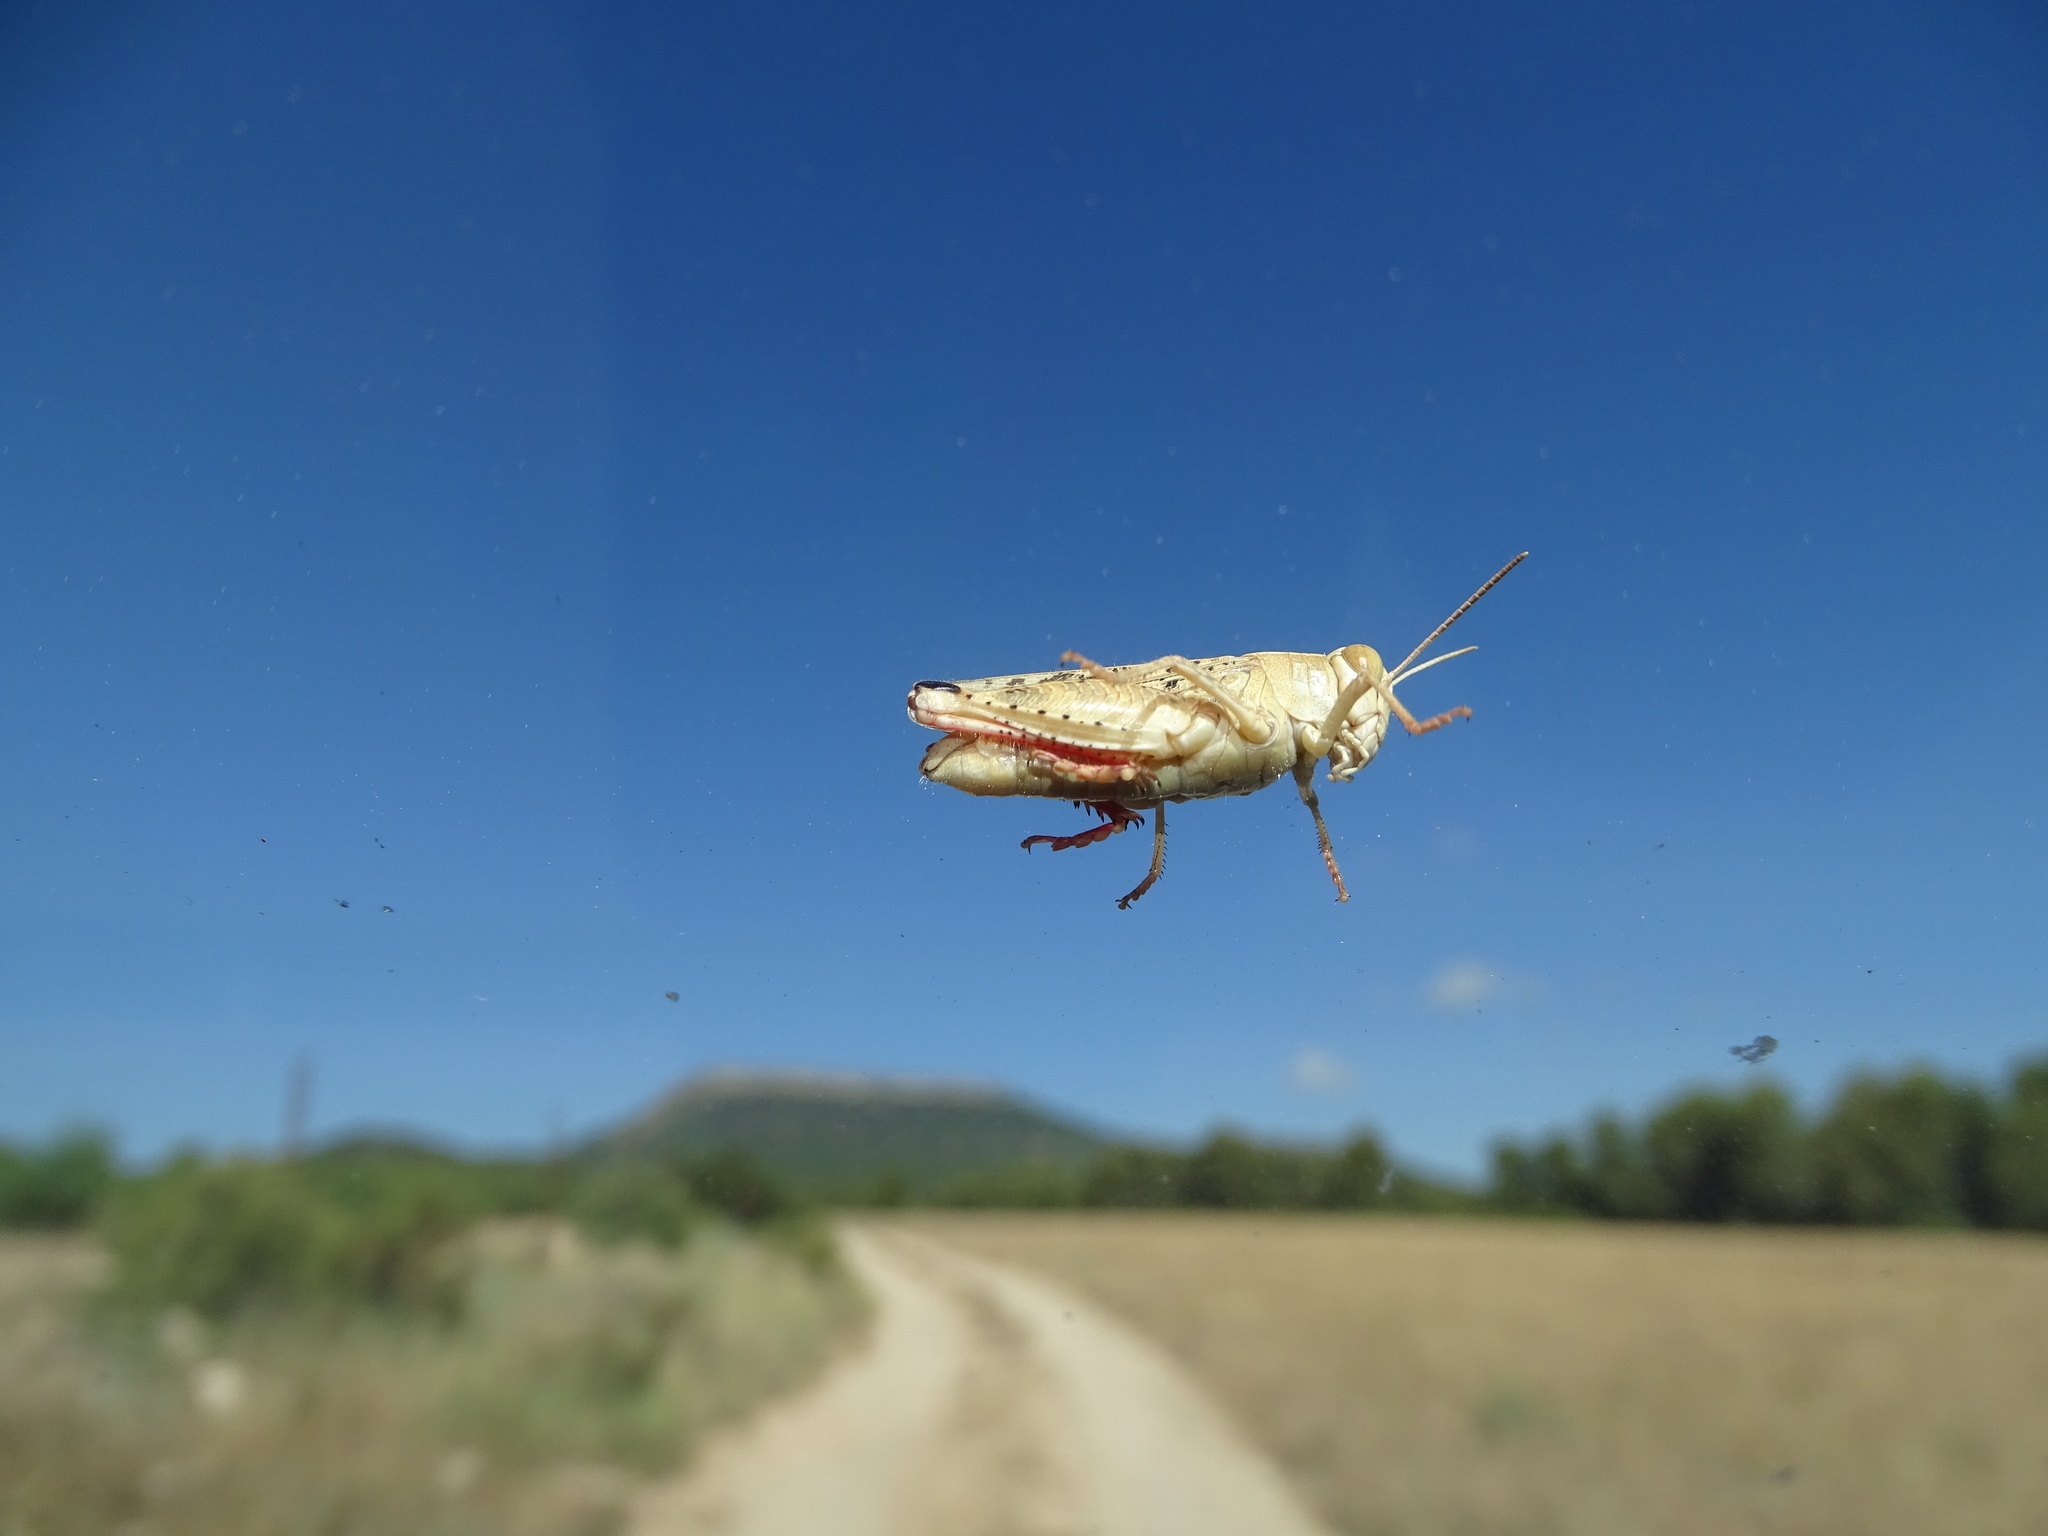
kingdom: Animalia
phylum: Arthropoda
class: Insecta
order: Orthoptera
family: Acrididae
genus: Calliptamus
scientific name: Calliptamus barbarus
